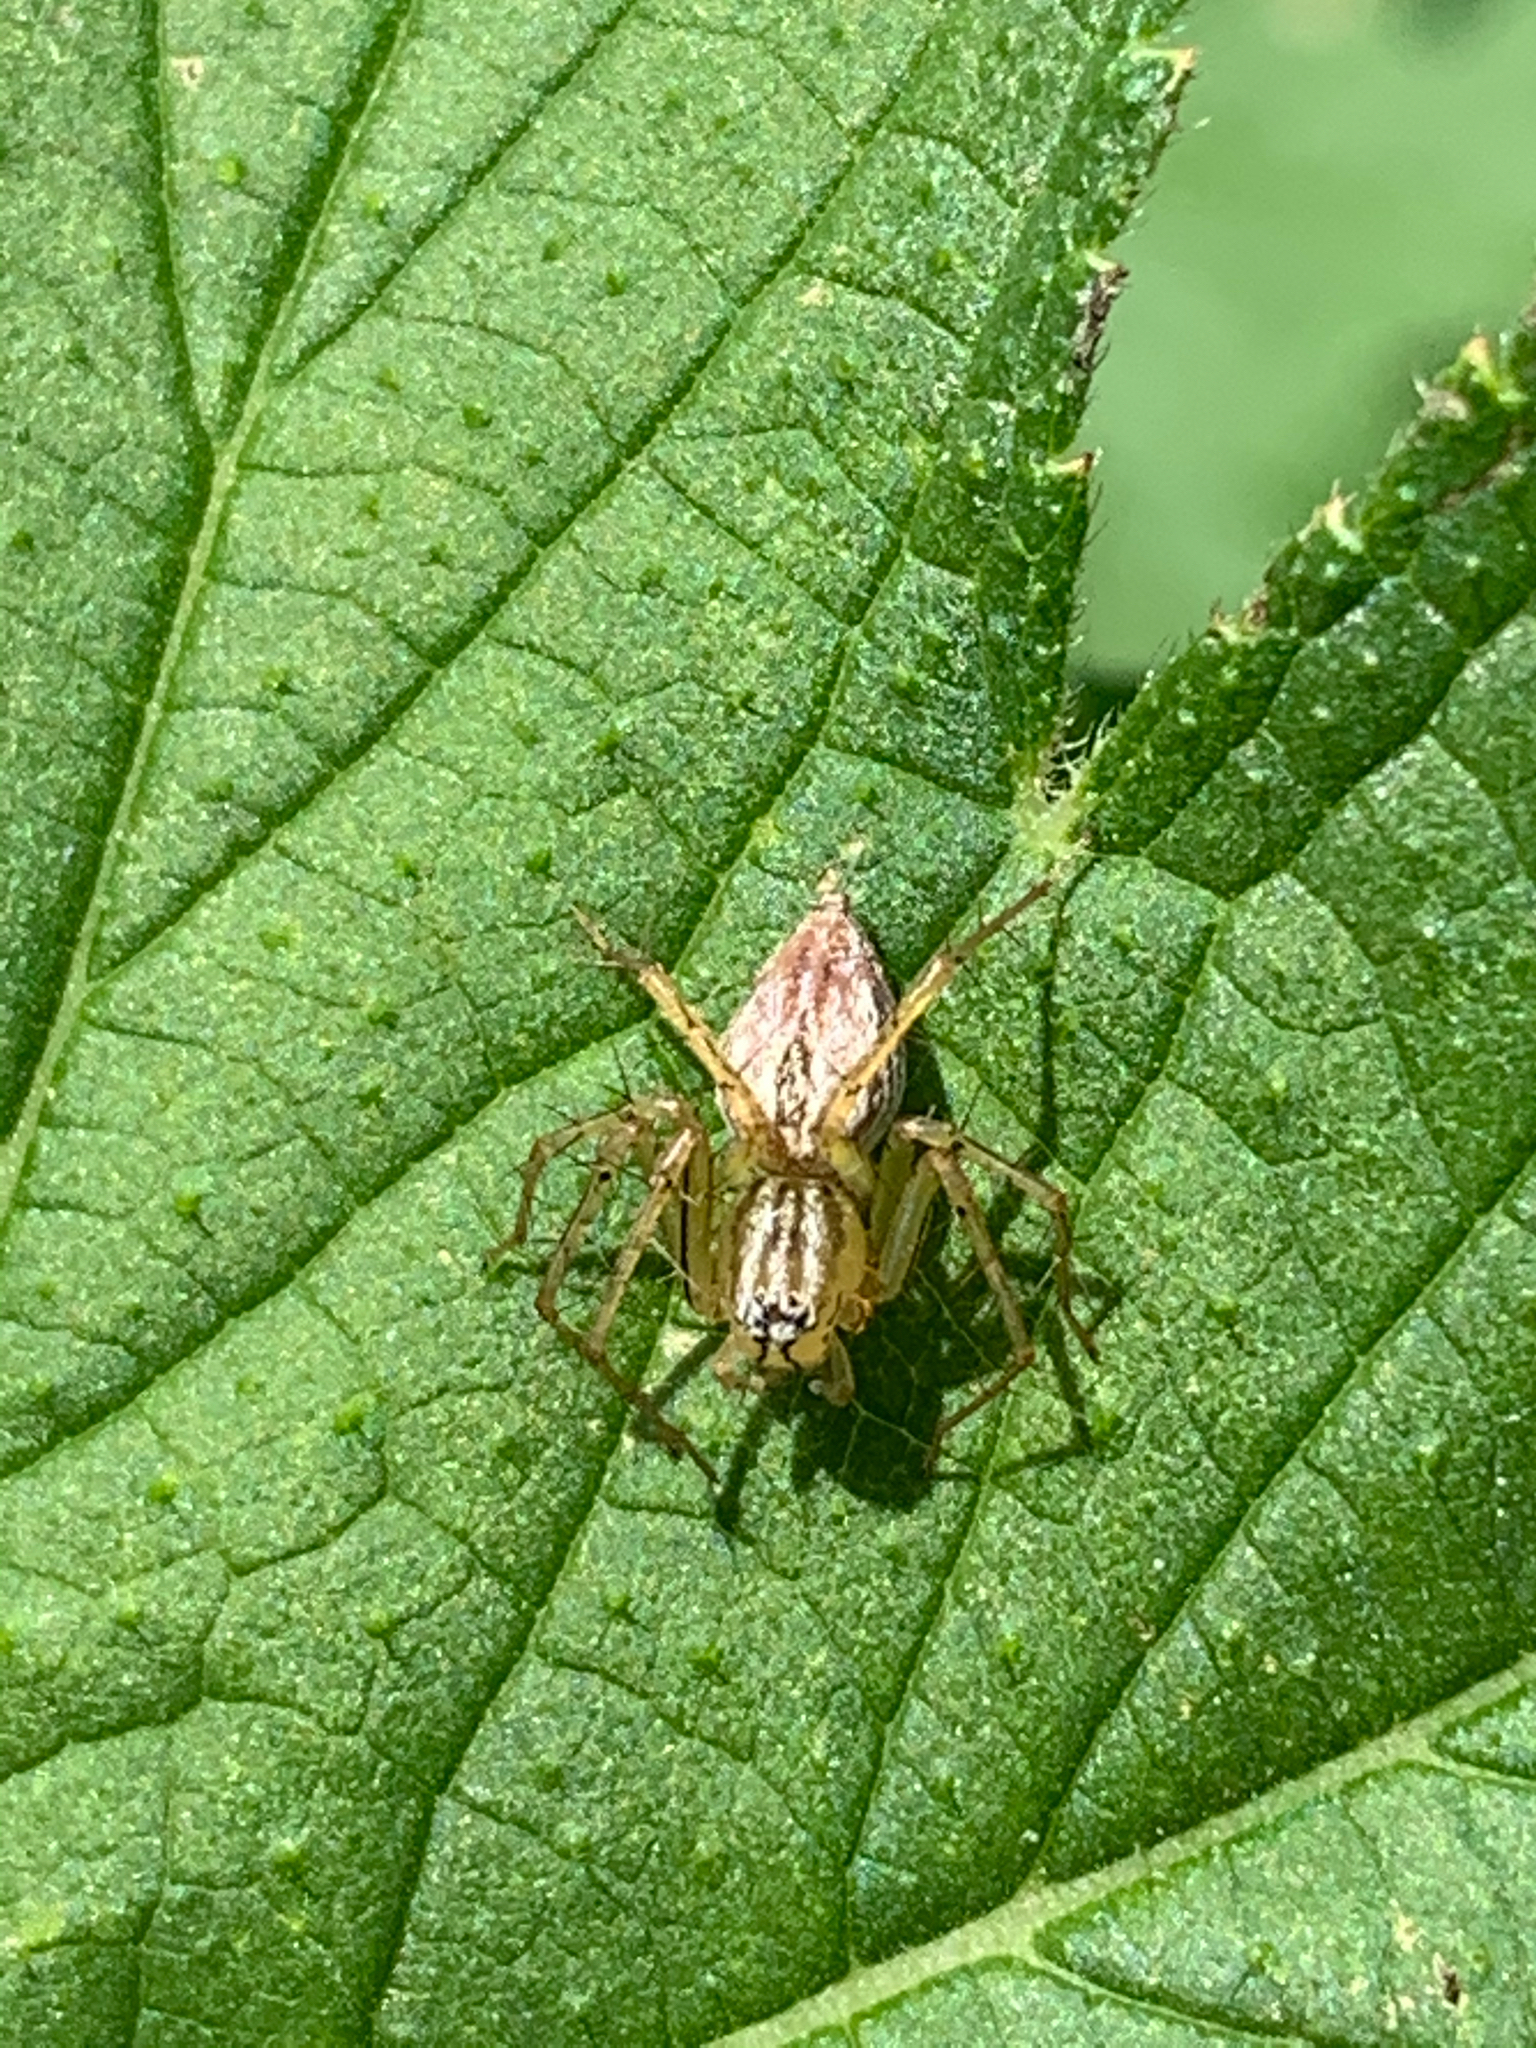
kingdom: Animalia
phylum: Arthropoda
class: Arachnida
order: Araneae
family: Oxyopidae
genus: Oxyopes
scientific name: Oxyopes salticus
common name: Lynx spiders
